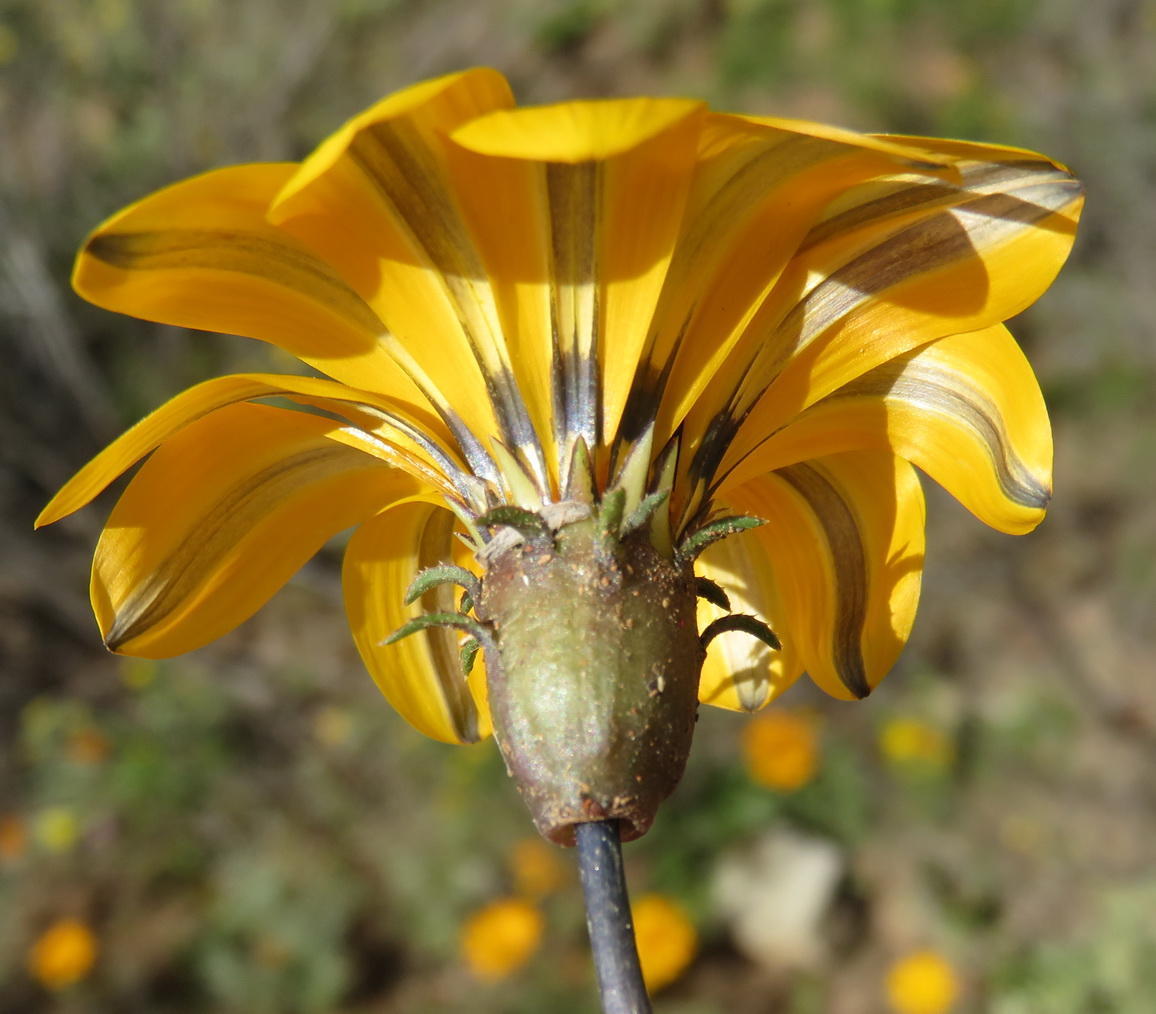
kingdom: Plantae
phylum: Tracheophyta
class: Magnoliopsida
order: Asterales
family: Asteraceae
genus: Gazania
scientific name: Gazania krebsiana
